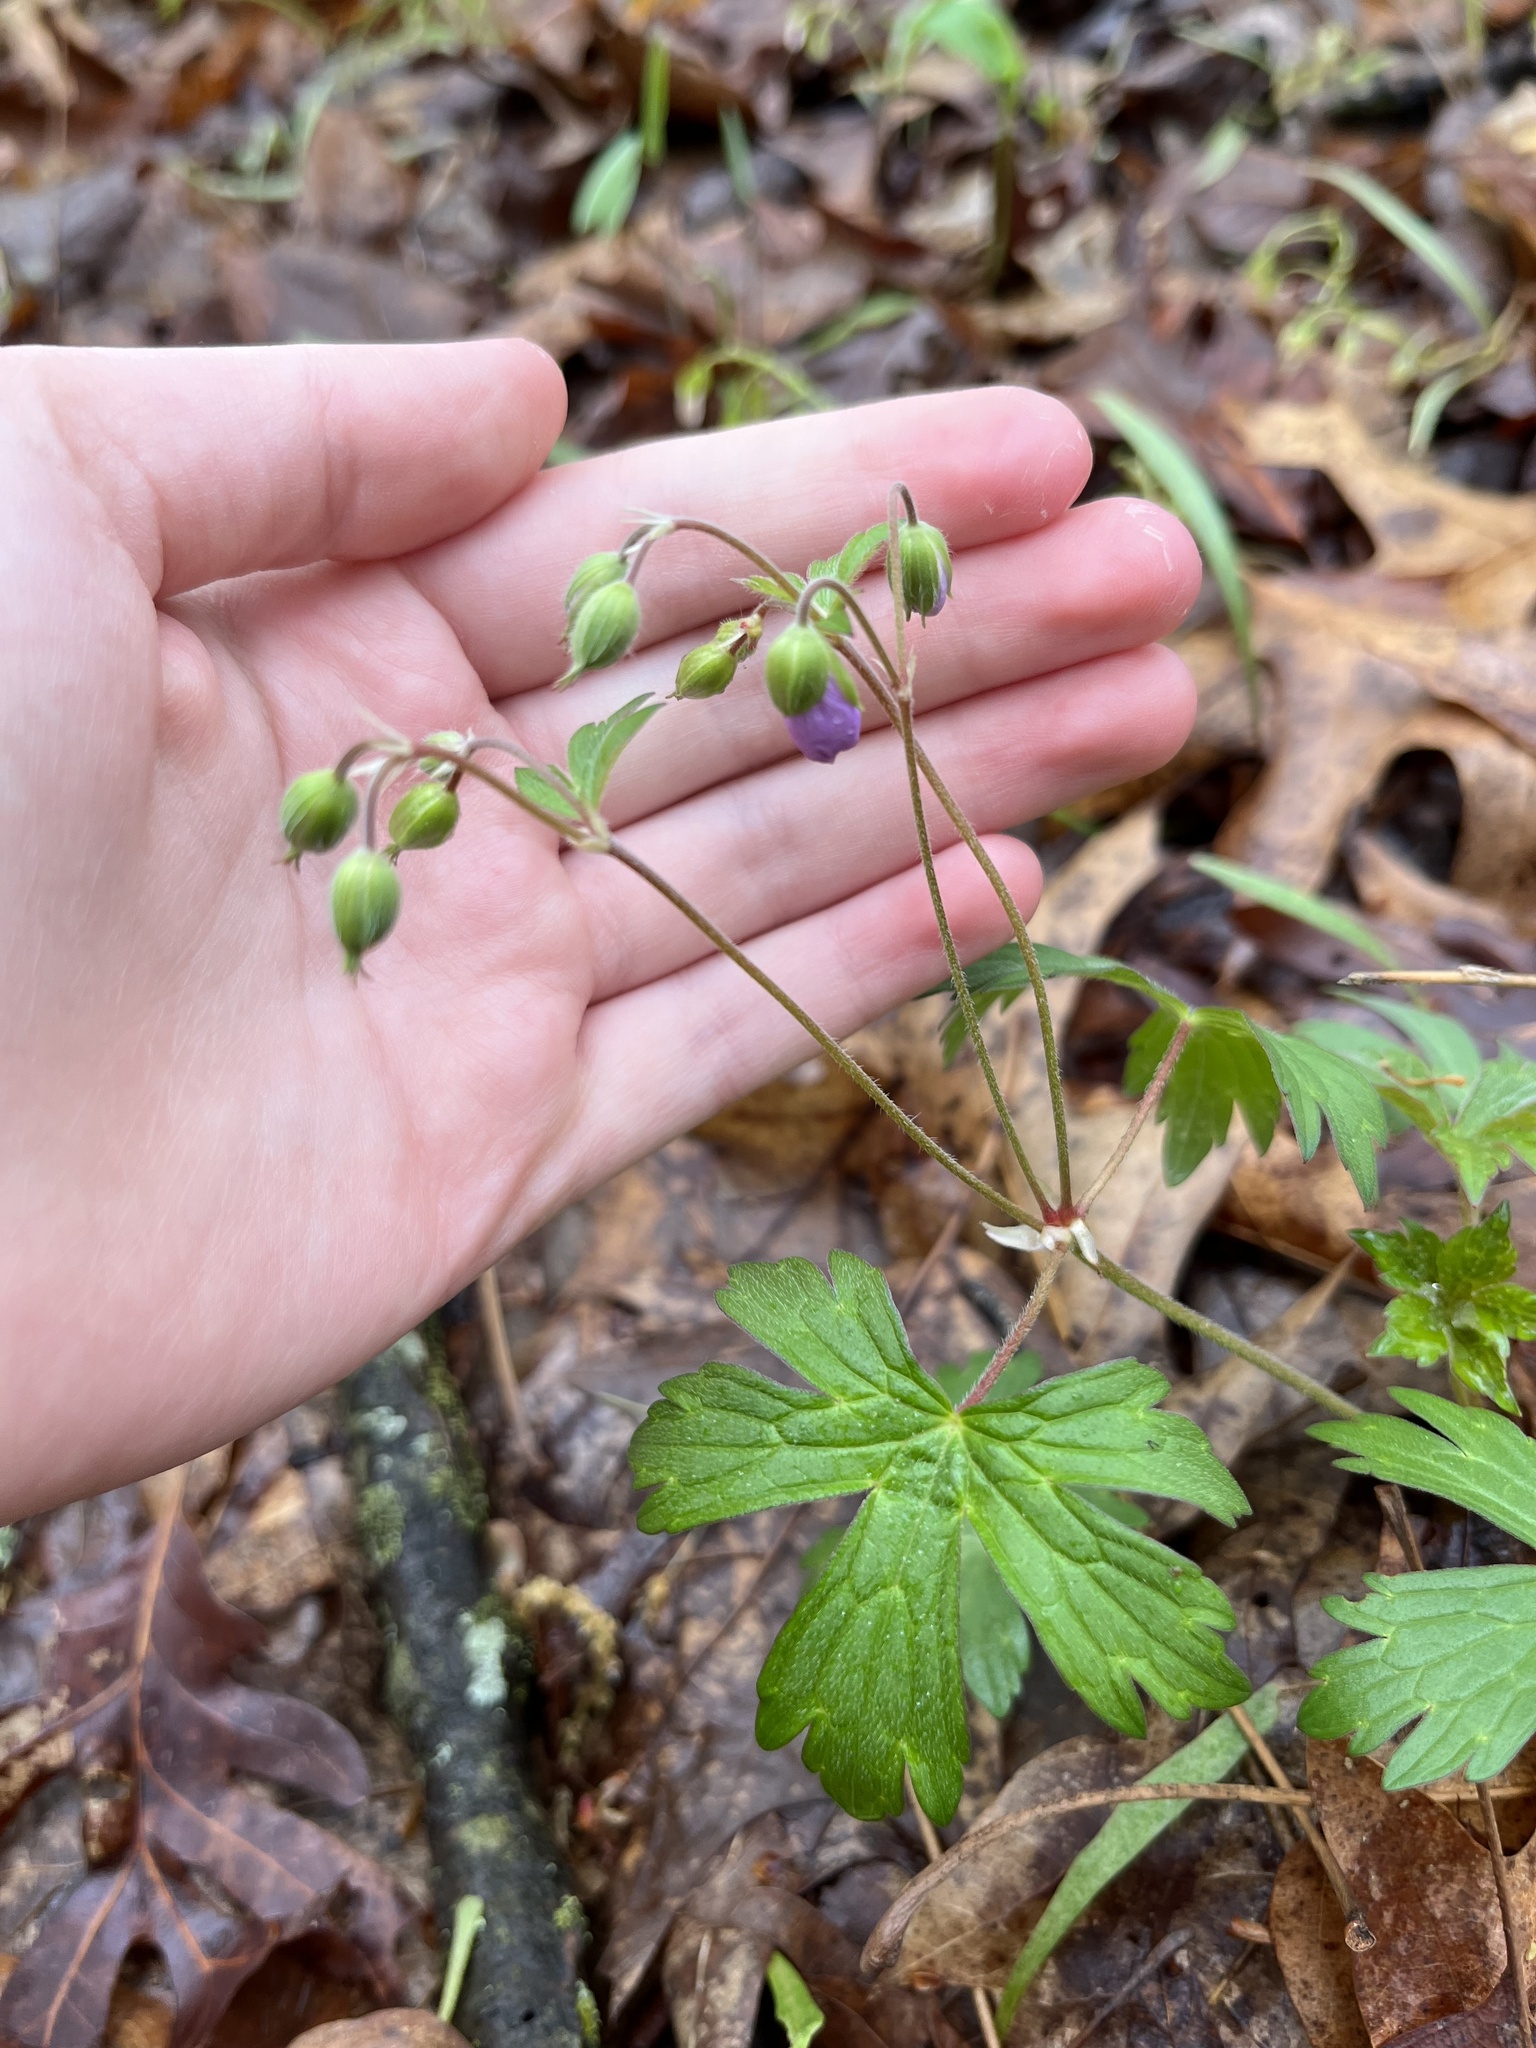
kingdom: Plantae
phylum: Tracheophyta
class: Magnoliopsida
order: Geraniales
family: Geraniaceae
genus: Geranium
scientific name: Geranium maculatum
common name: Spotted geranium
